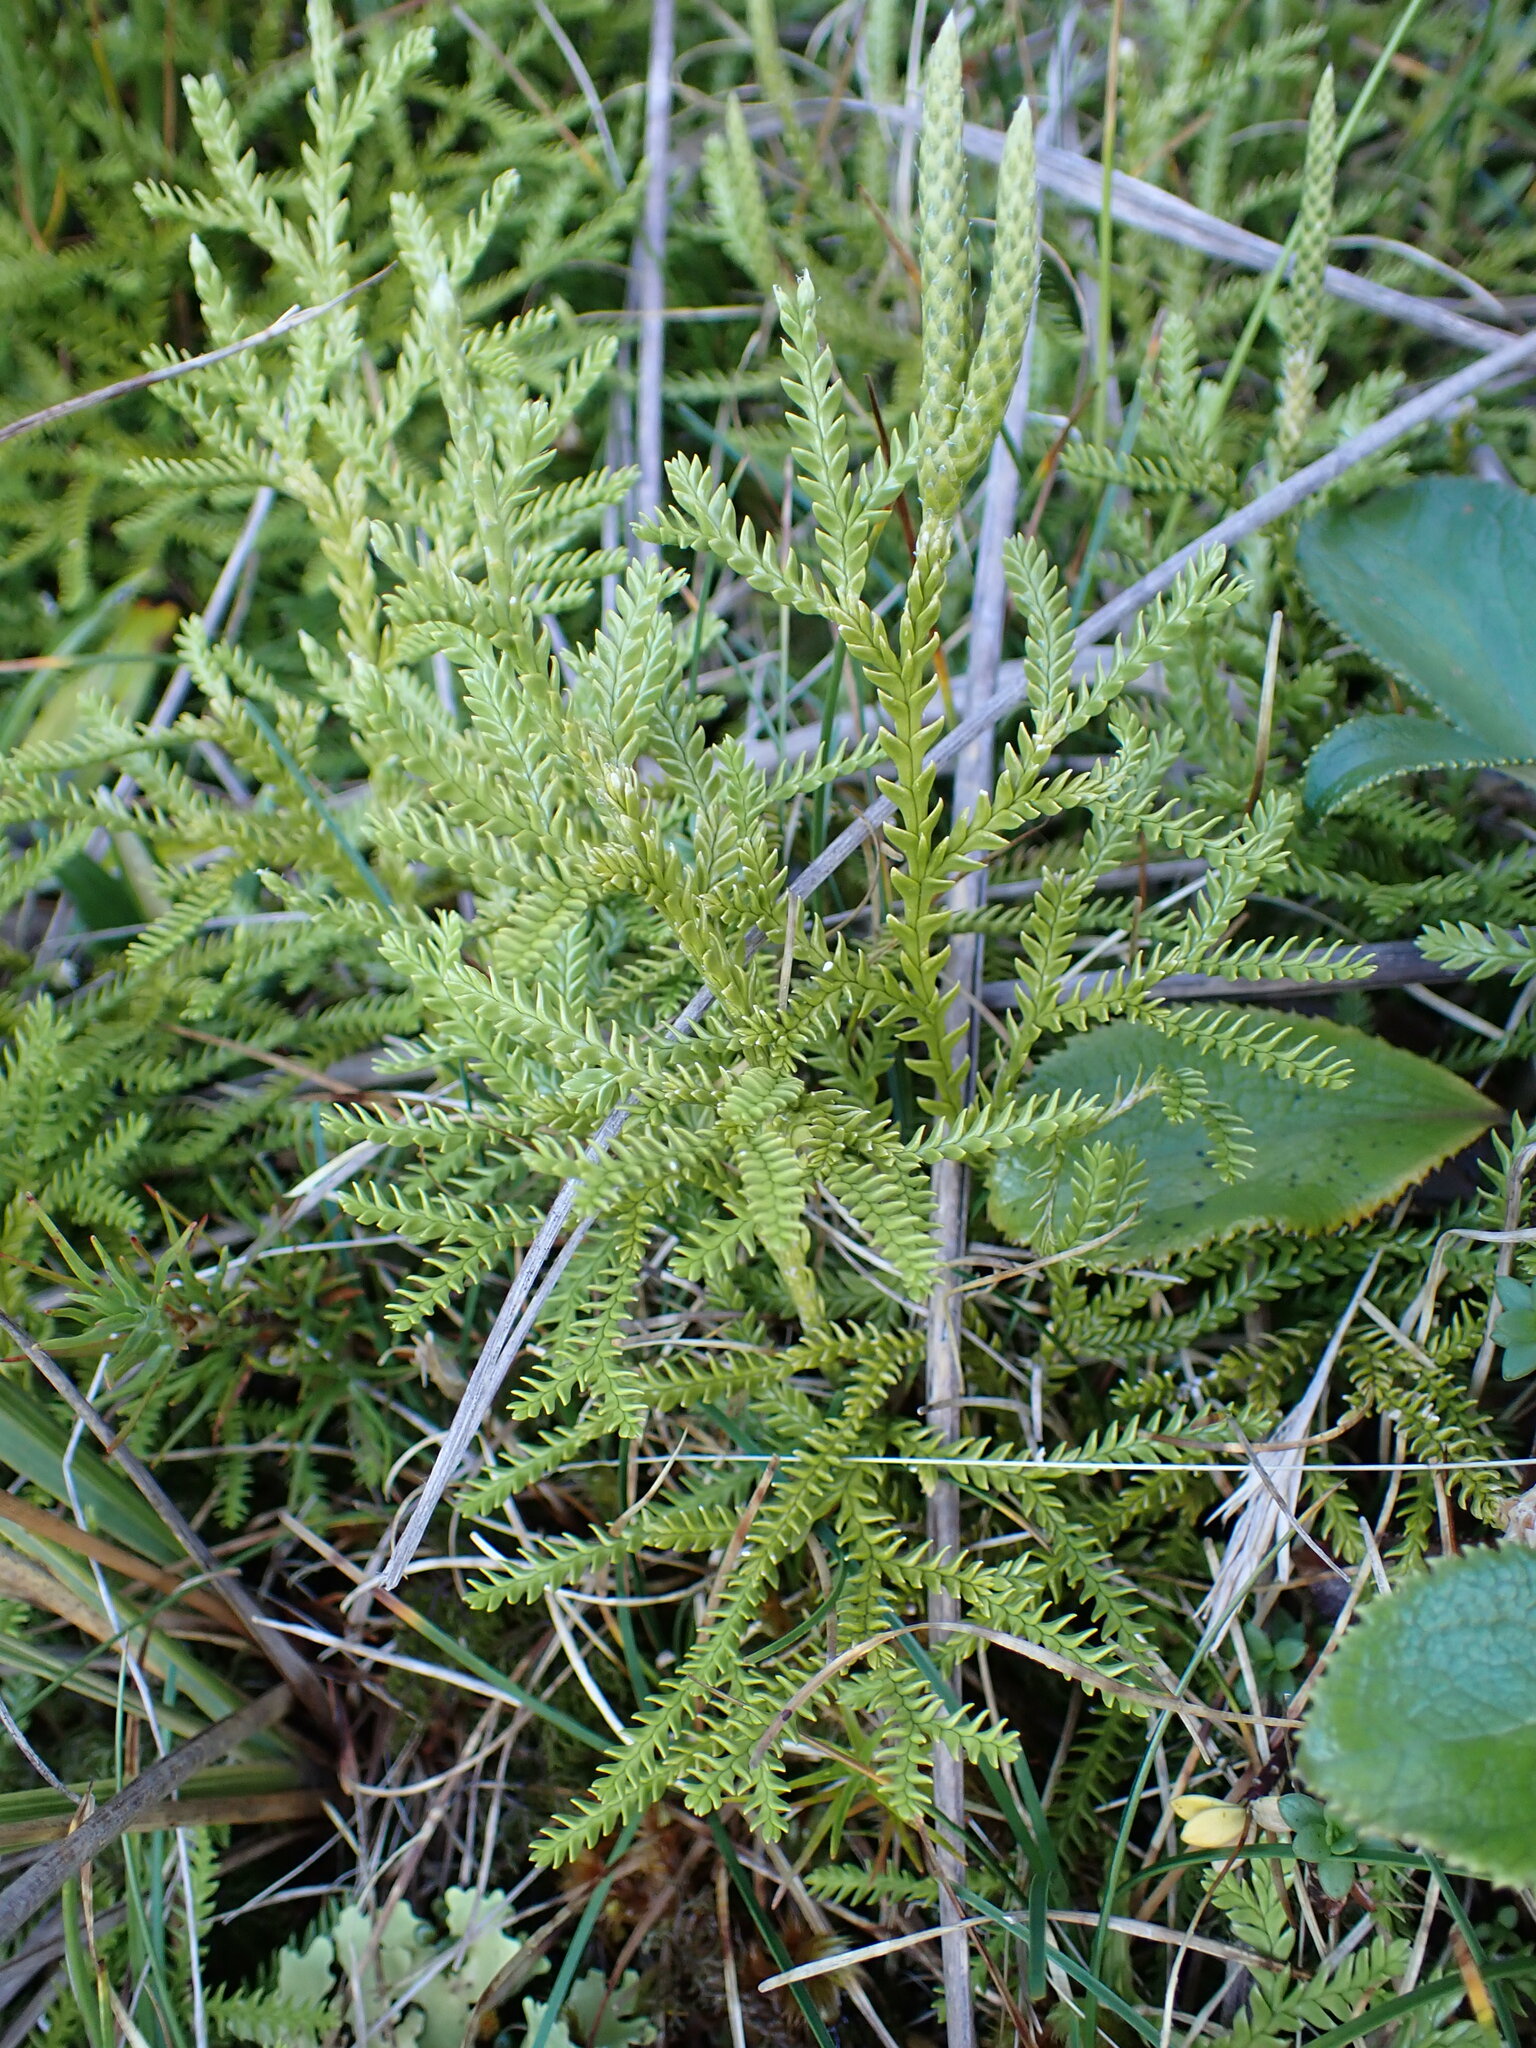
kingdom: Plantae
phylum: Tracheophyta
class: Lycopodiopsida
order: Lycopodiales
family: Lycopodiaceae
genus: Diphasium
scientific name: Diphasium scariosum
